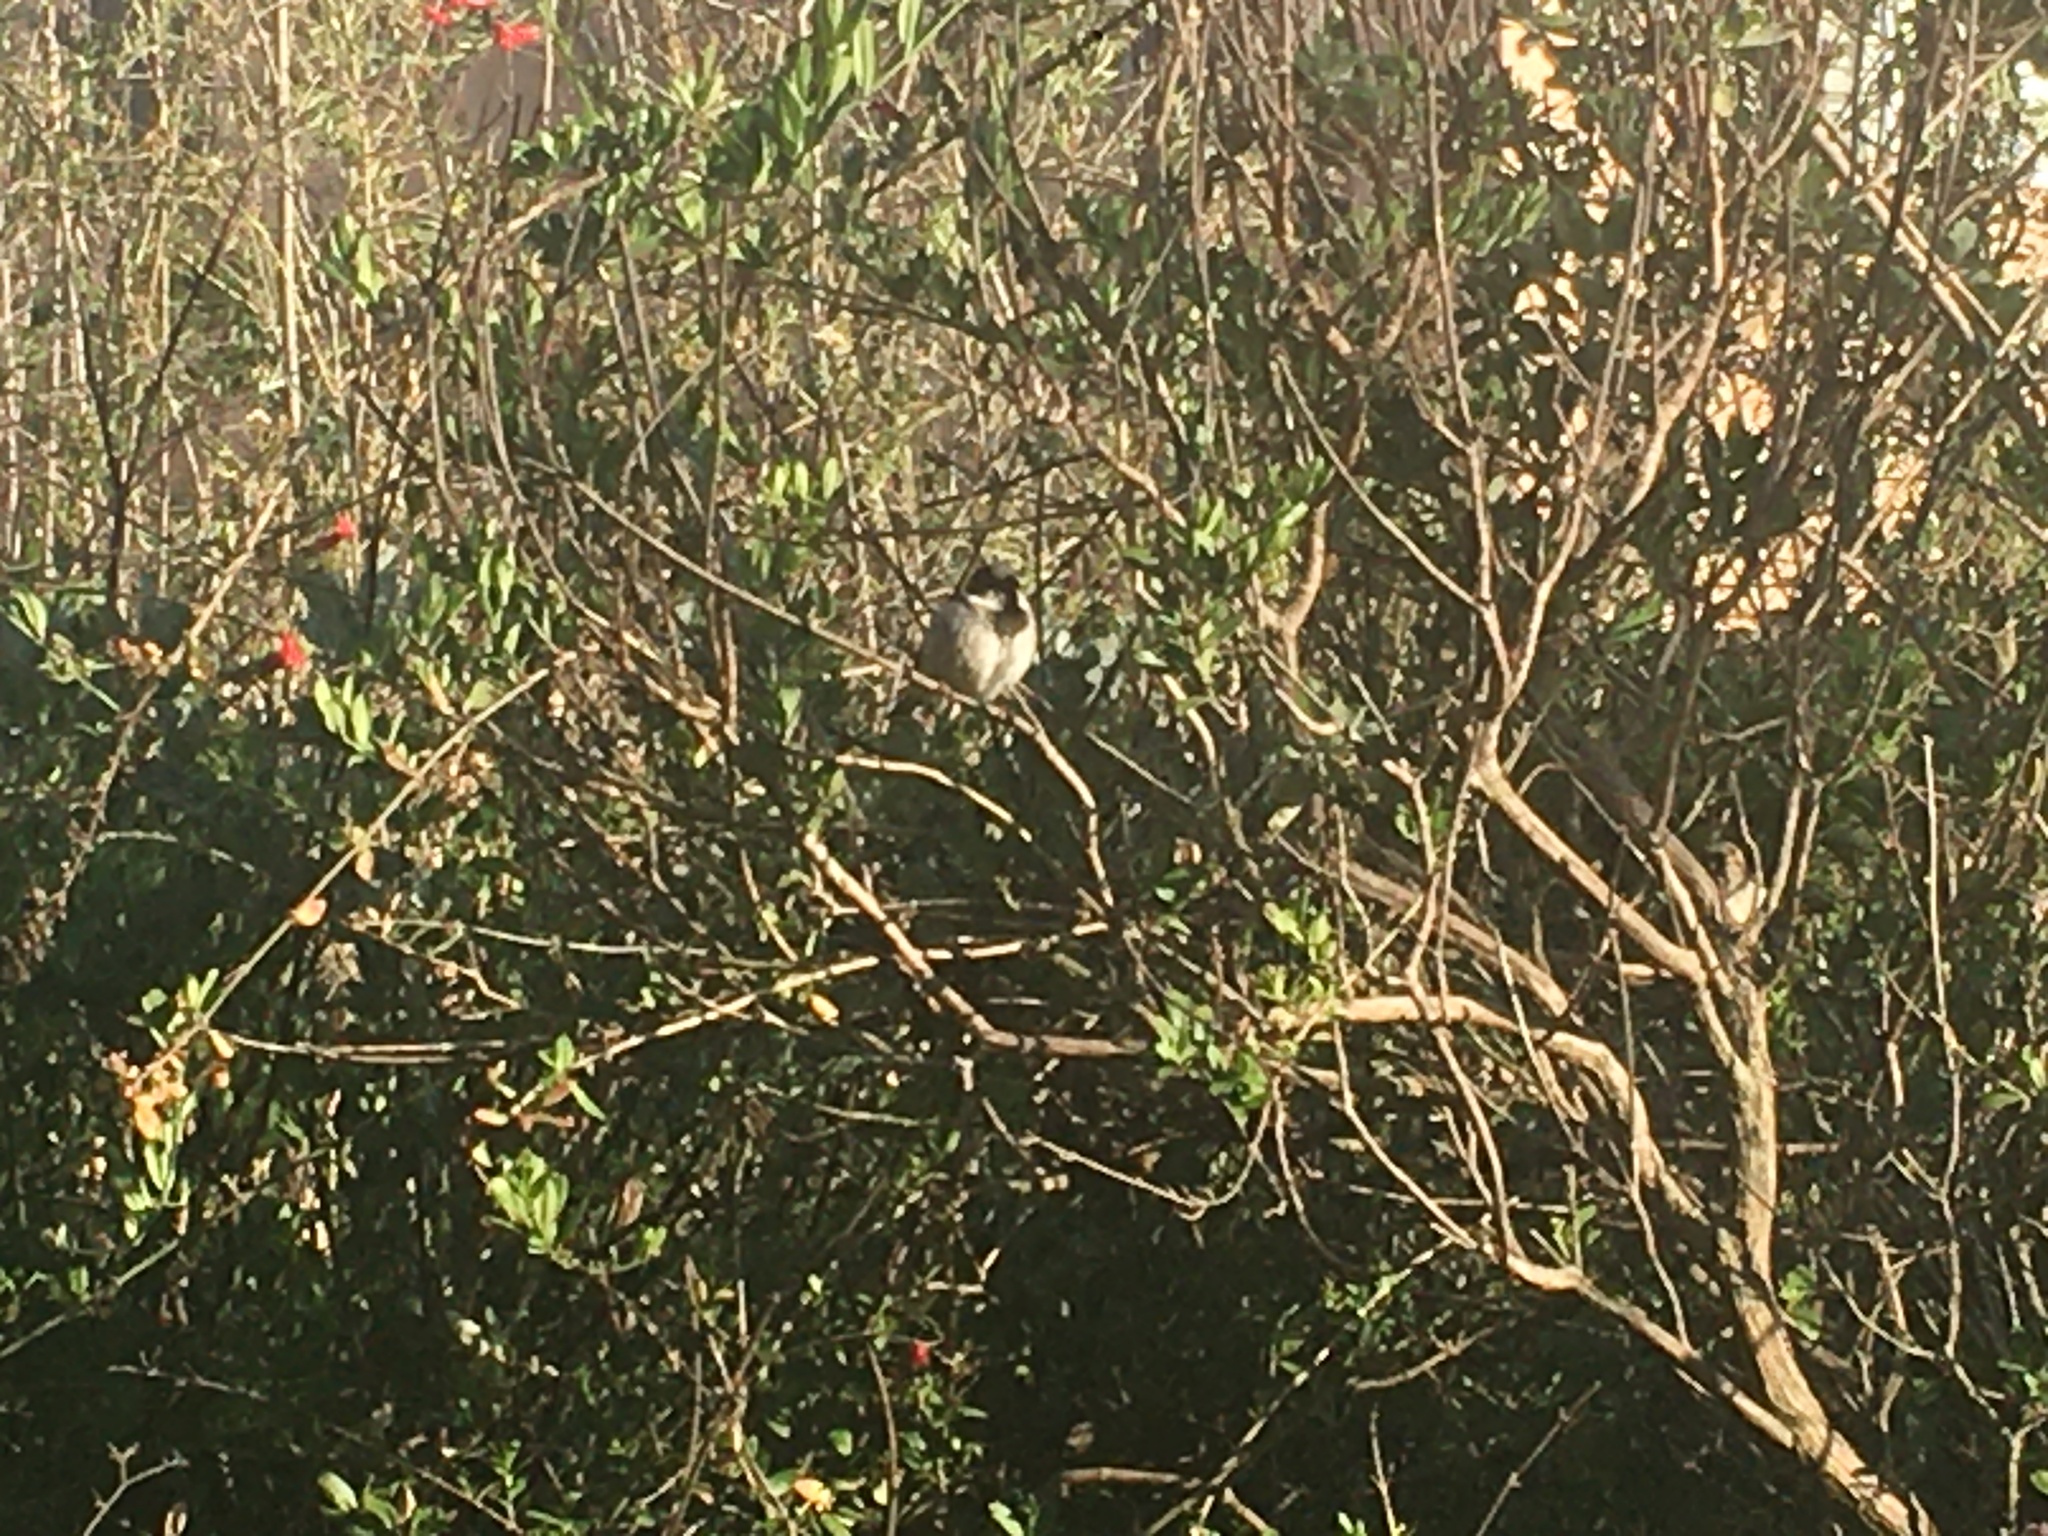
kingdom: Animalia
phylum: Chordata
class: Aves
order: Passeriformes
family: Passeridae
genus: Passer
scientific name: Passer domesticus
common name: House sparrow
